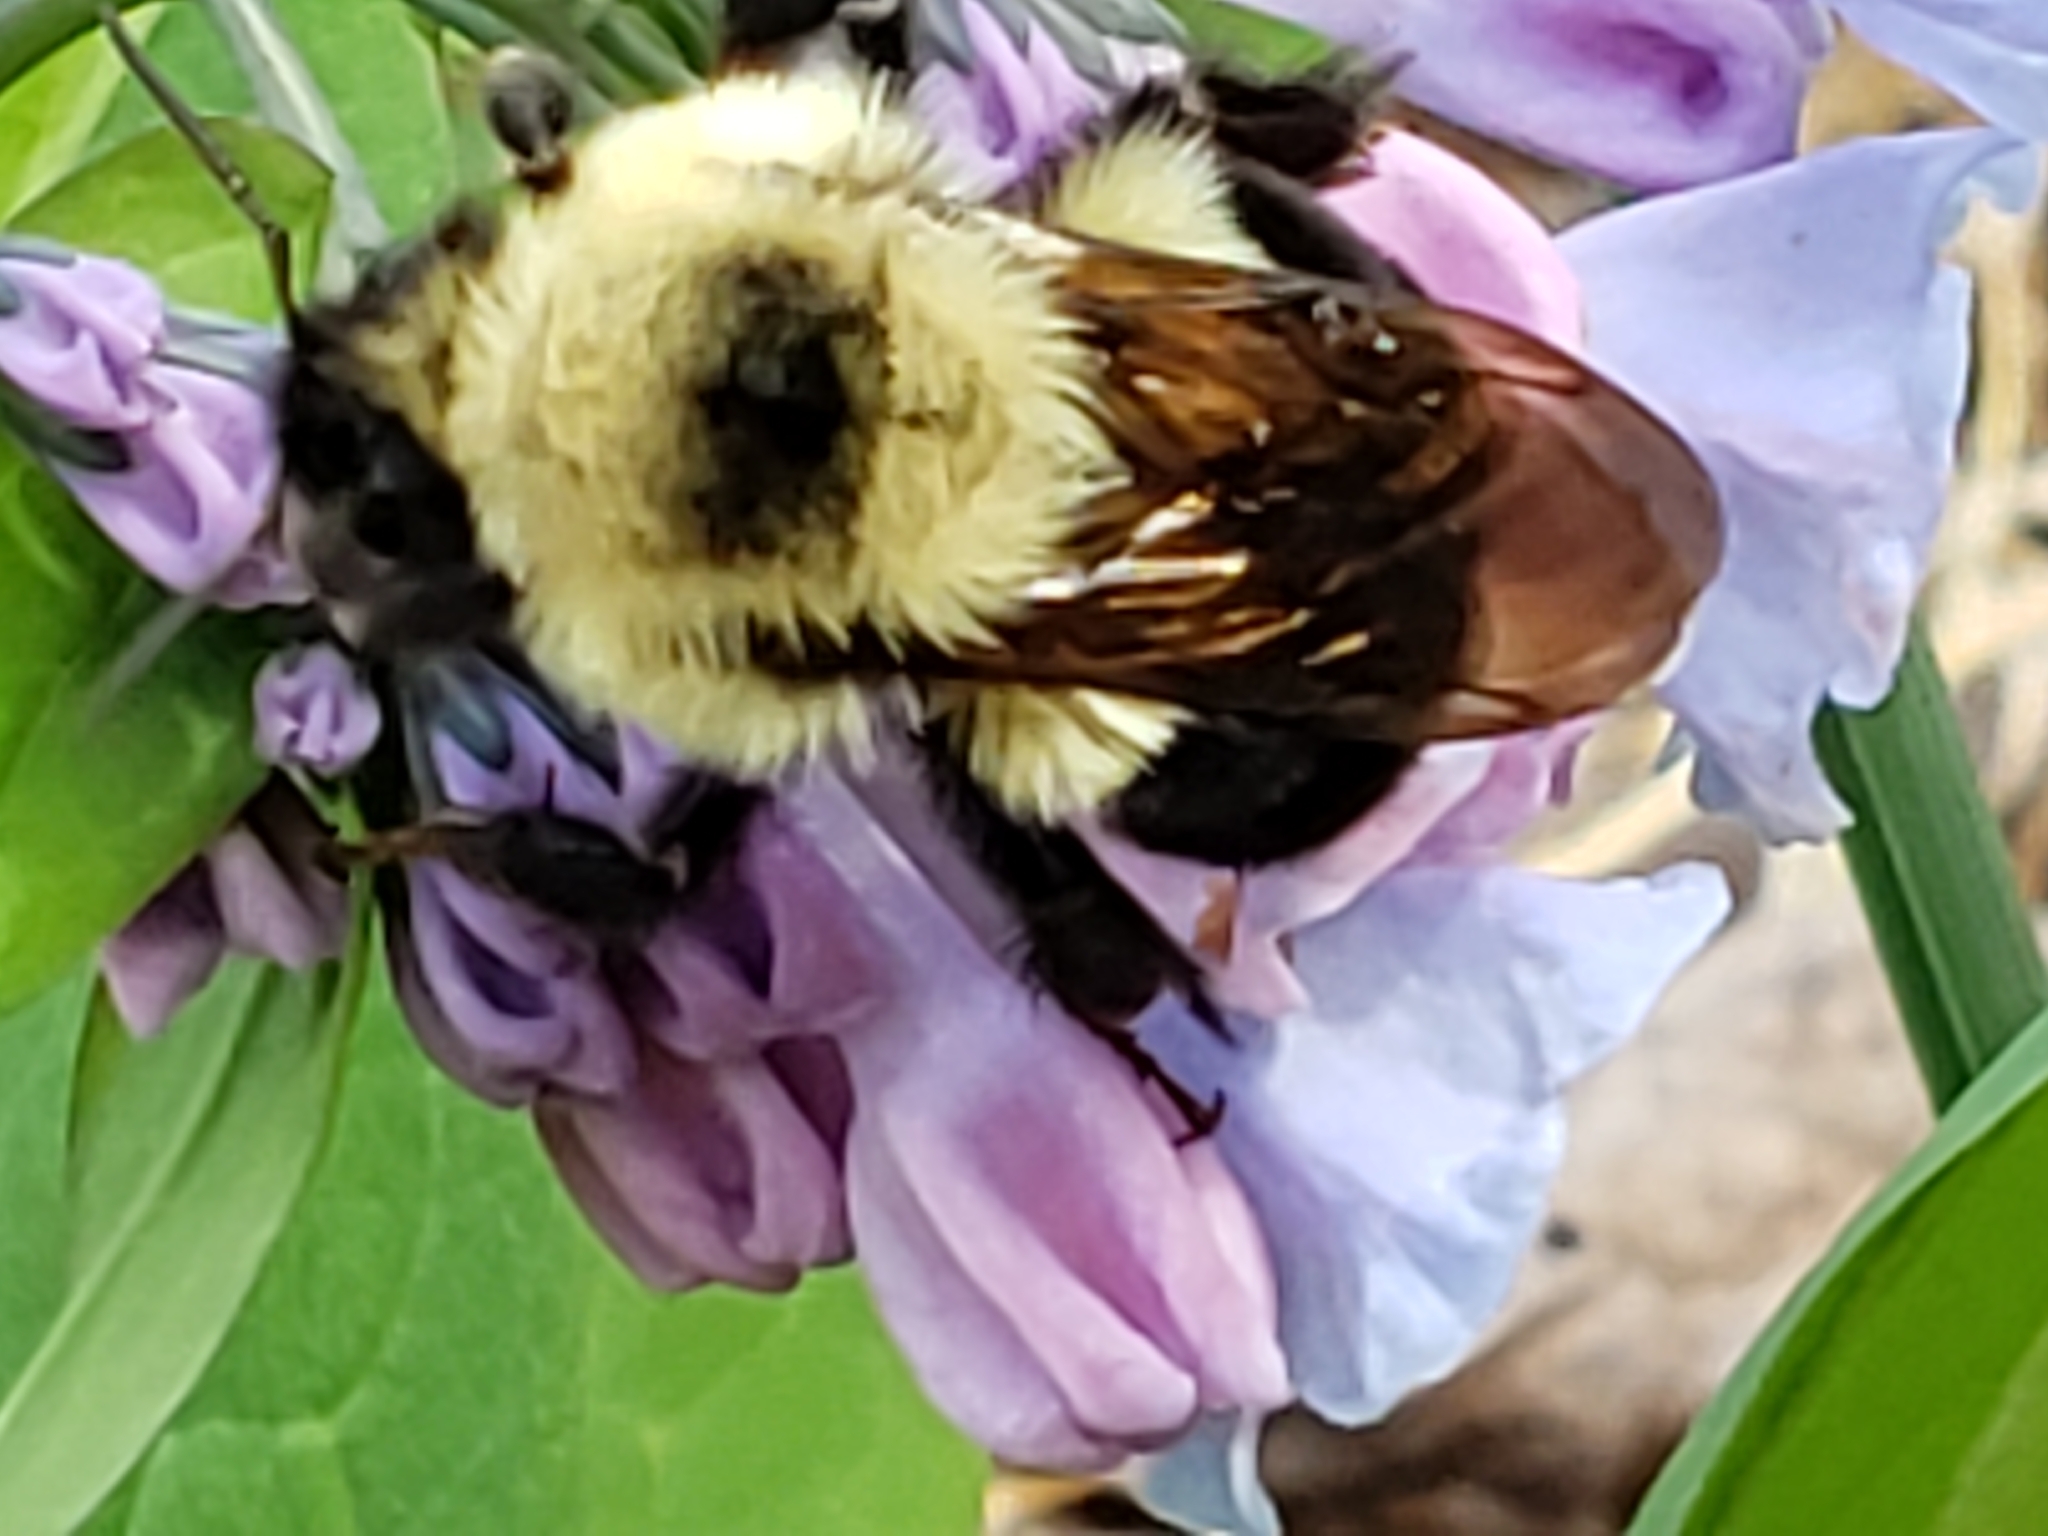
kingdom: Animalia
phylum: Arthropoda
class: Insecta
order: Hymenoptera
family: Apidae
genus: Bombus
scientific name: Bombus bimaculatus
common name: Two-spotted bumble bee
